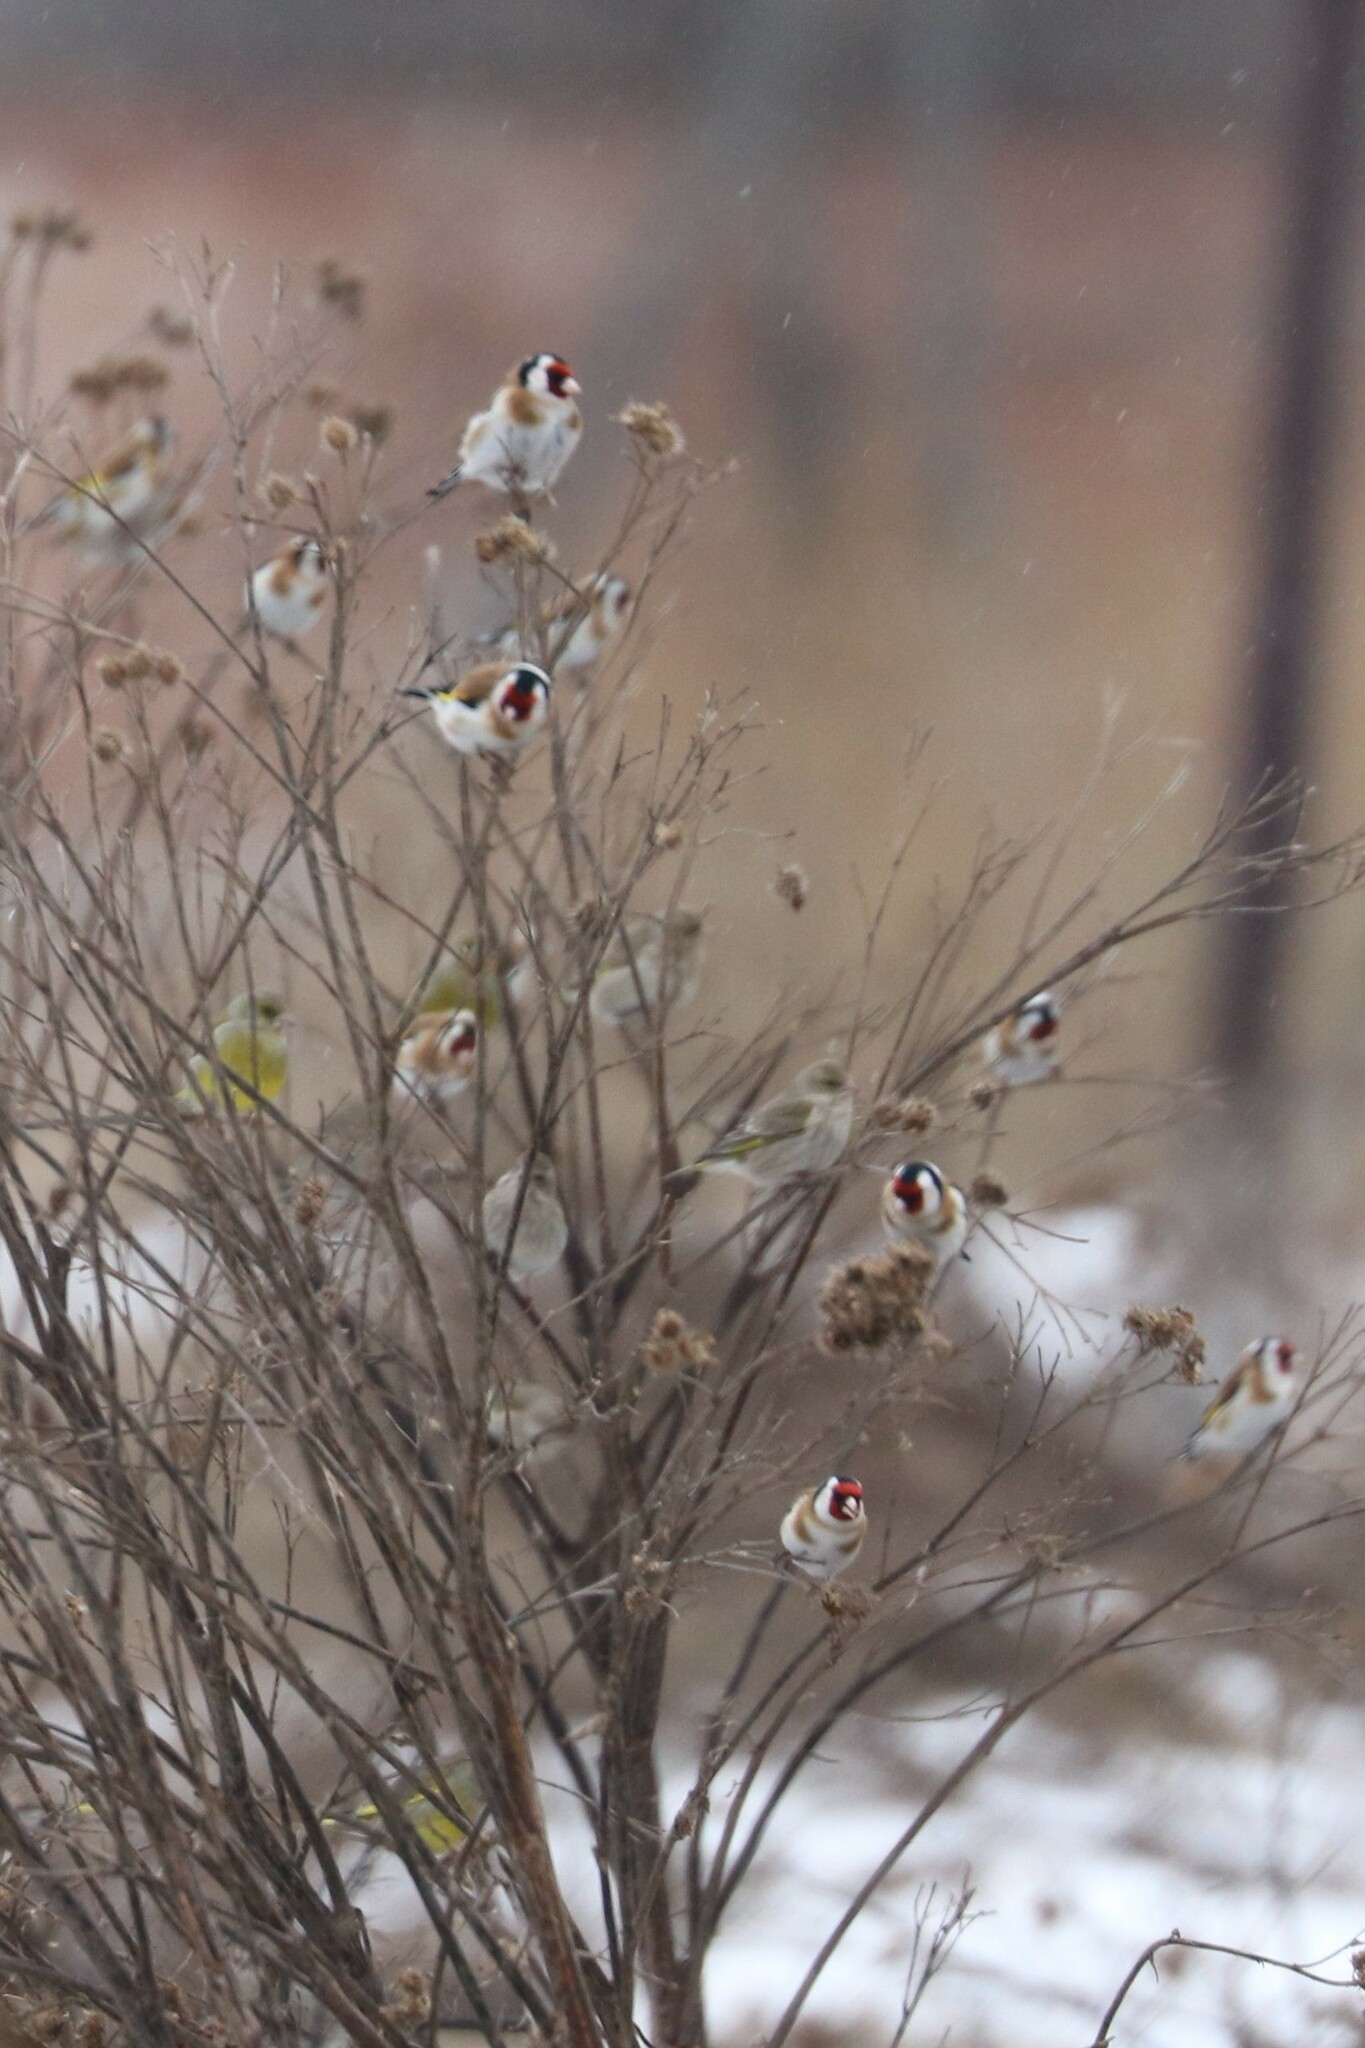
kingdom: Animalia
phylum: Chordata
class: Aves
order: Passeriformes
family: Fringillidae
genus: Carduelis
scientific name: Carduelis carduelis
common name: European goldfinch
